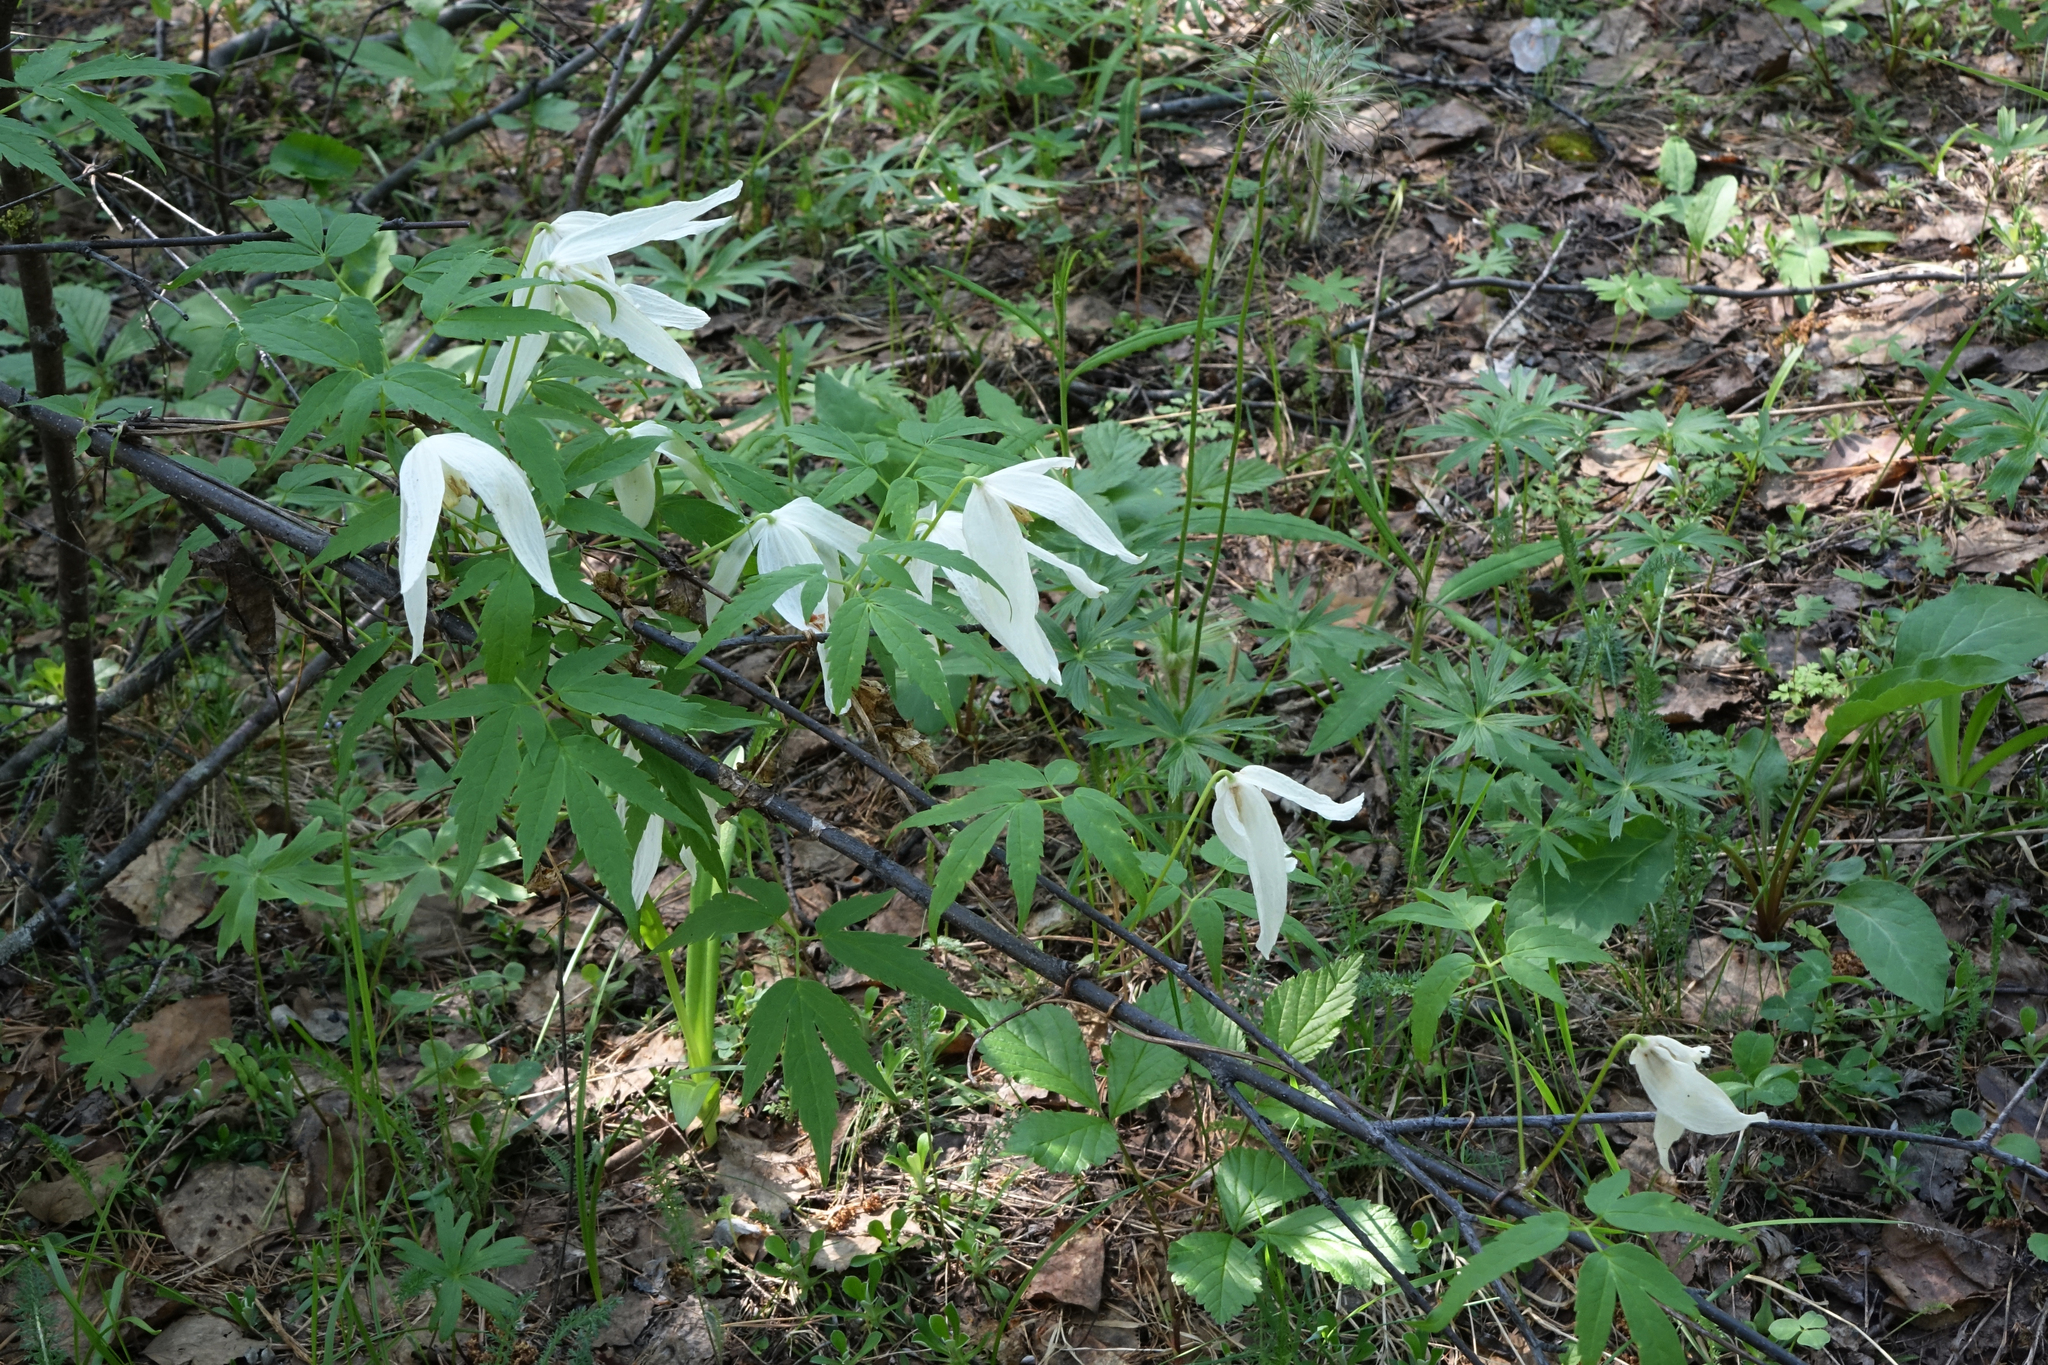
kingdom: Plantae
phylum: Tracheophyta
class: Magnoliopsida
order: Ranunculales
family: Ranunculaceae
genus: Clematis
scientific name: Clematis sibirica
